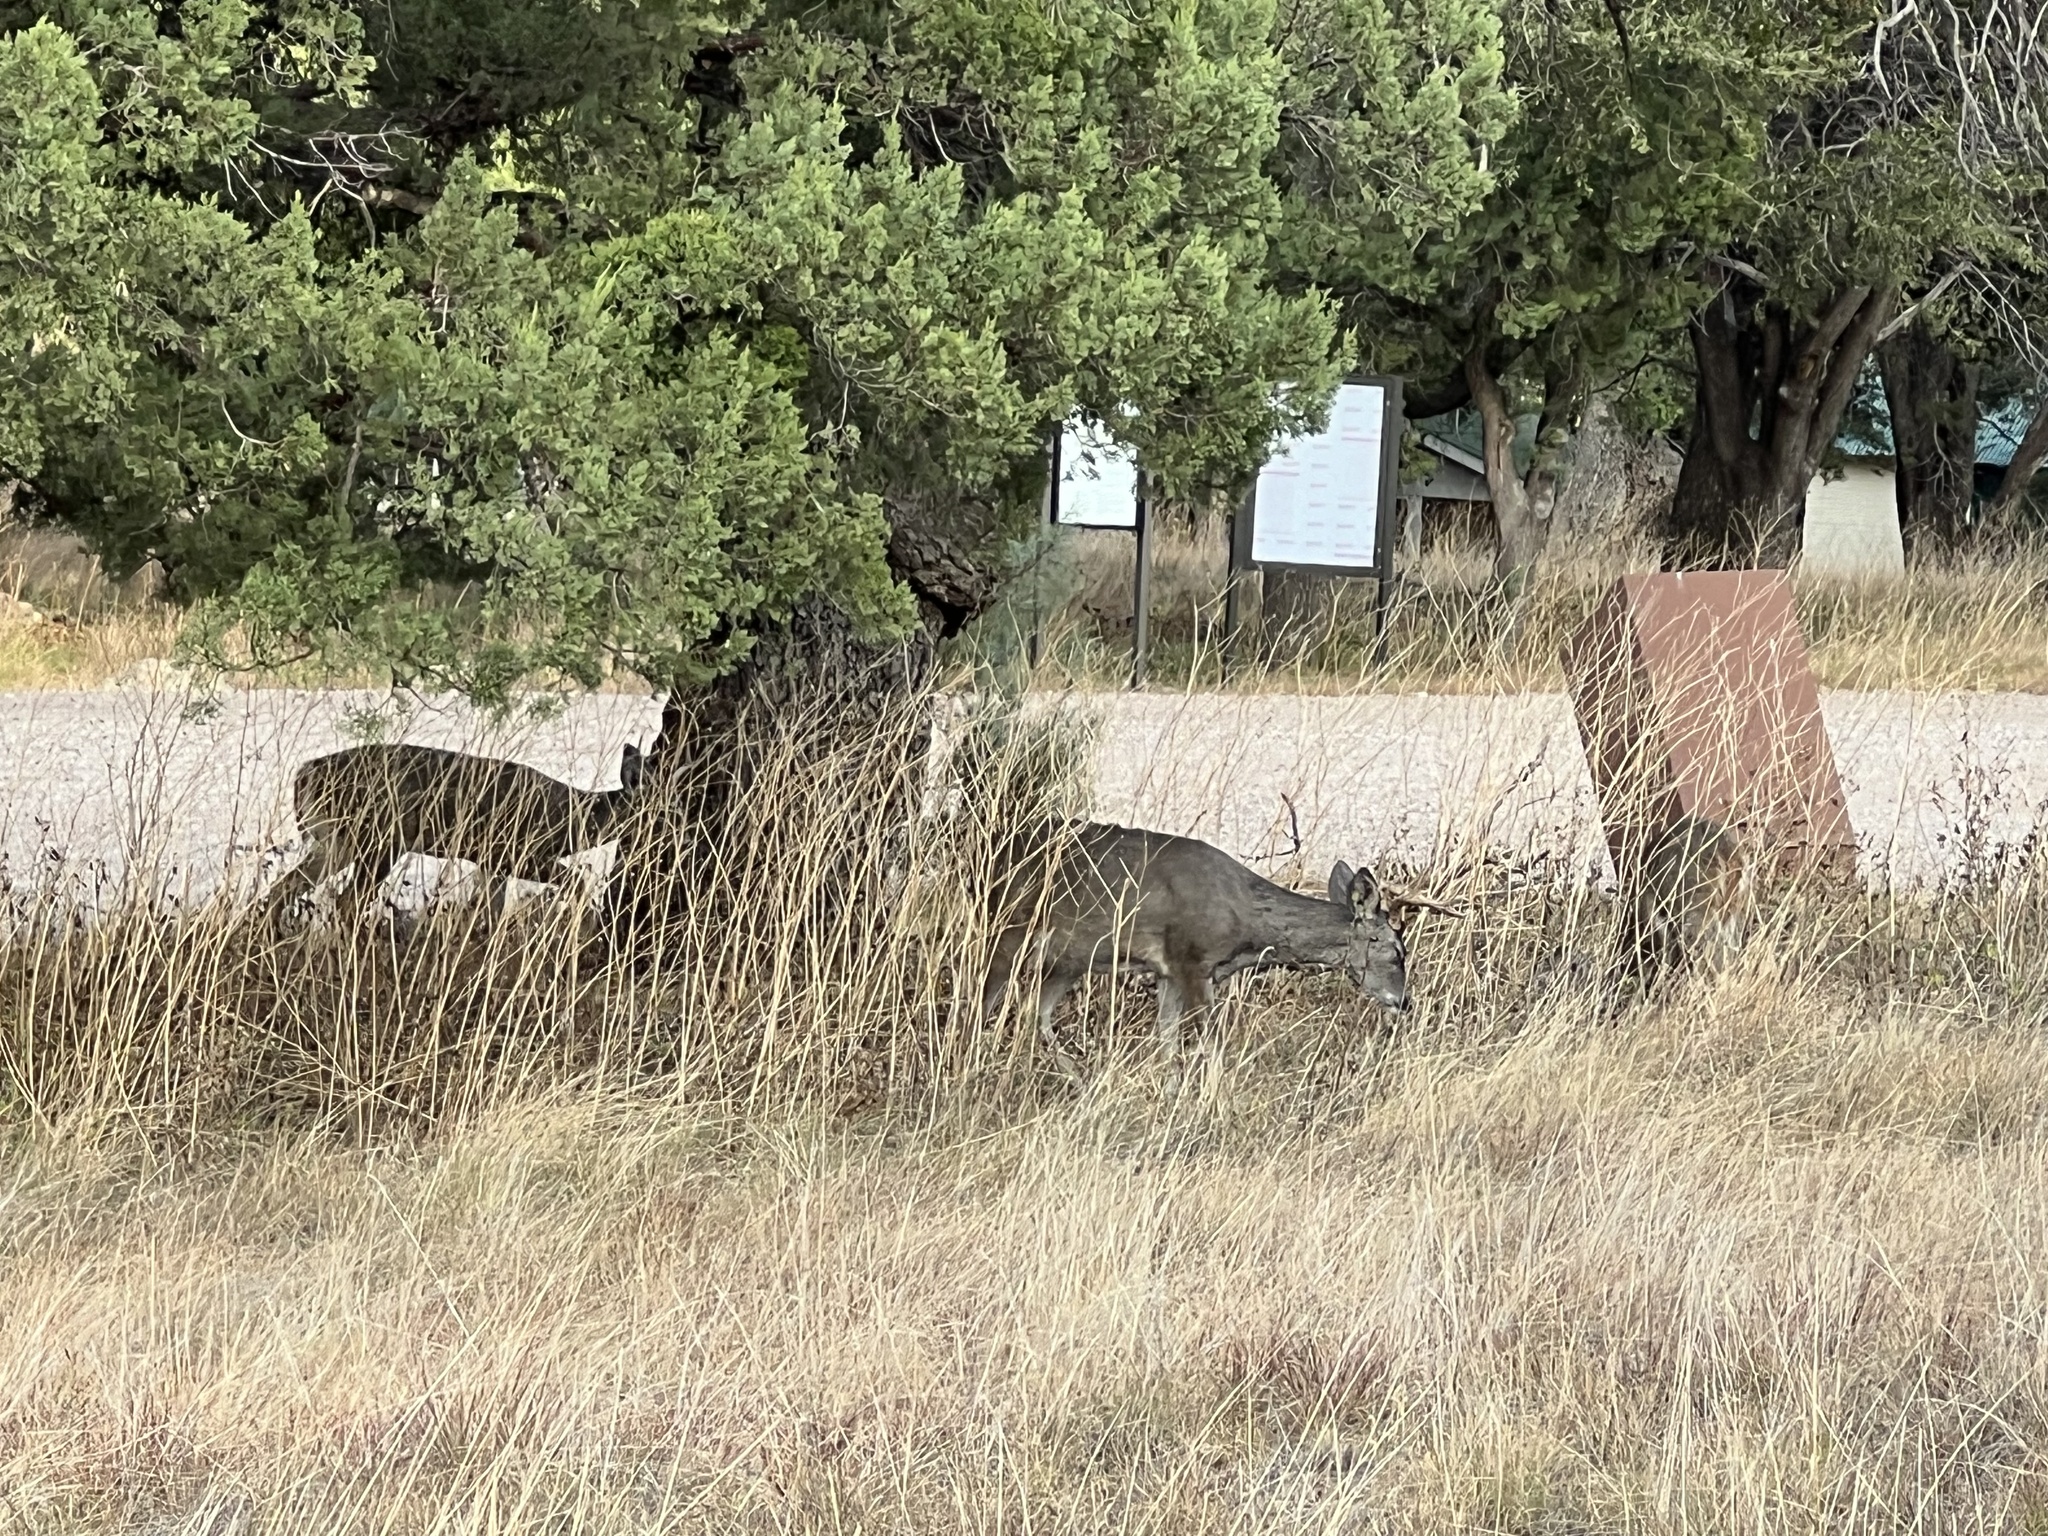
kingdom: Animalia
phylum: Chordata
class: Mammalia
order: Artiodactyla
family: Cervidae
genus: Odocoileus
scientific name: Odocoileus virginianus
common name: White-tailed deer
